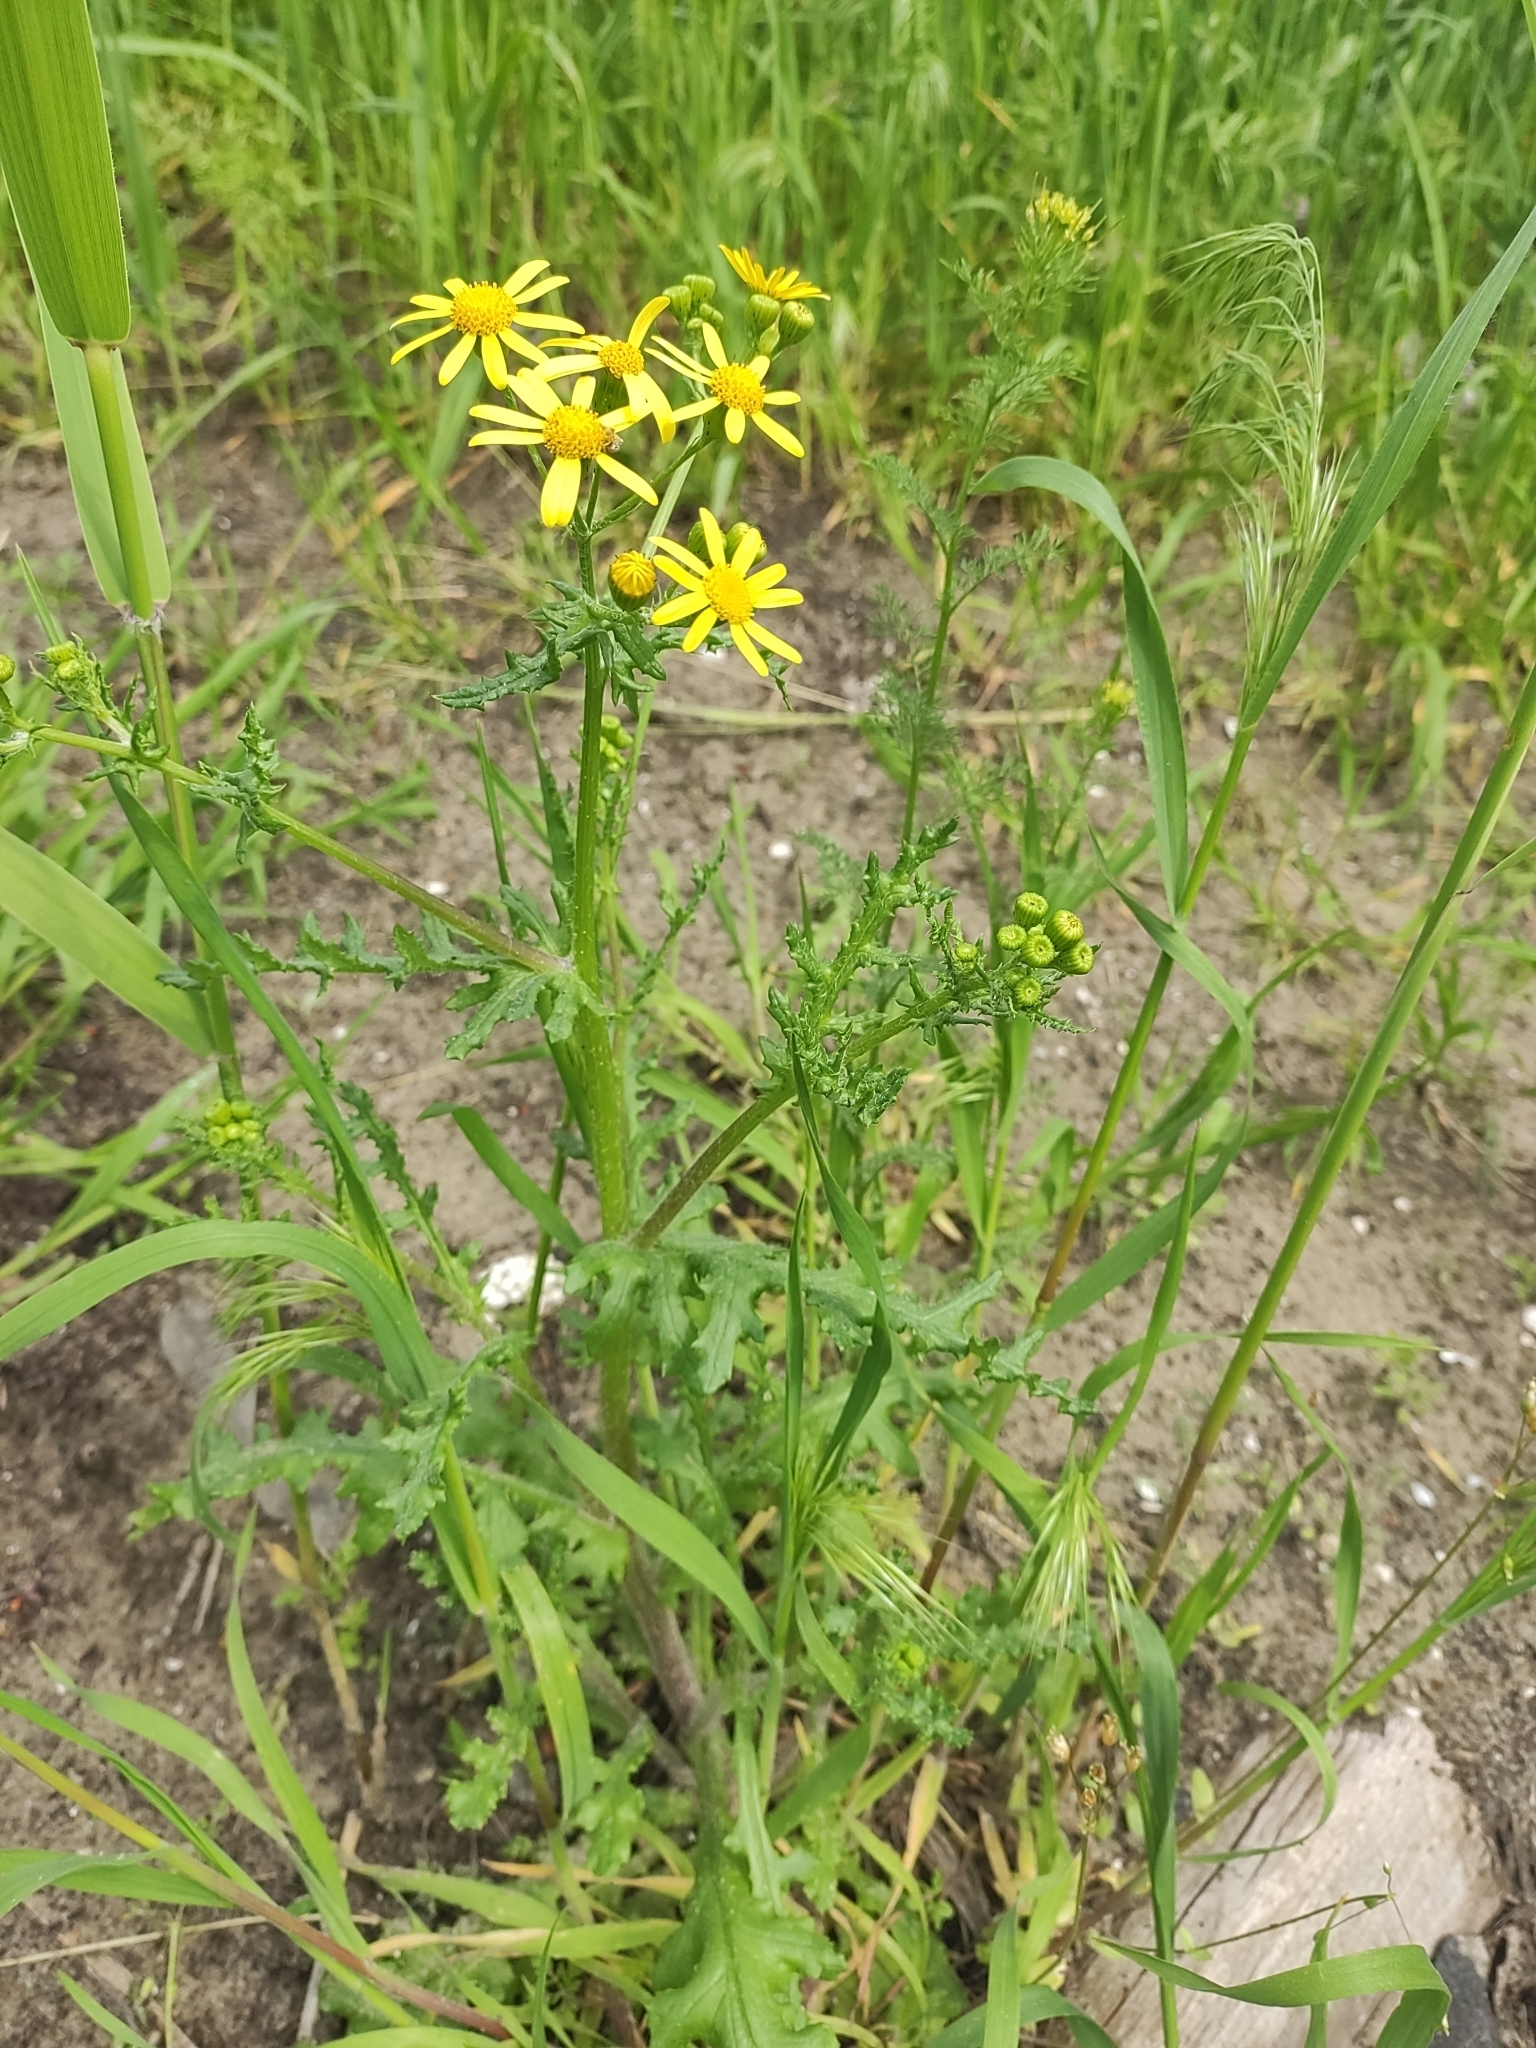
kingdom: Plantae
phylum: Tracheophyta
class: Magnoliopsida
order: Asterales
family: Asteraceae
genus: Senecio
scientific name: Senecio vernalis
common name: Eastern groundsel
